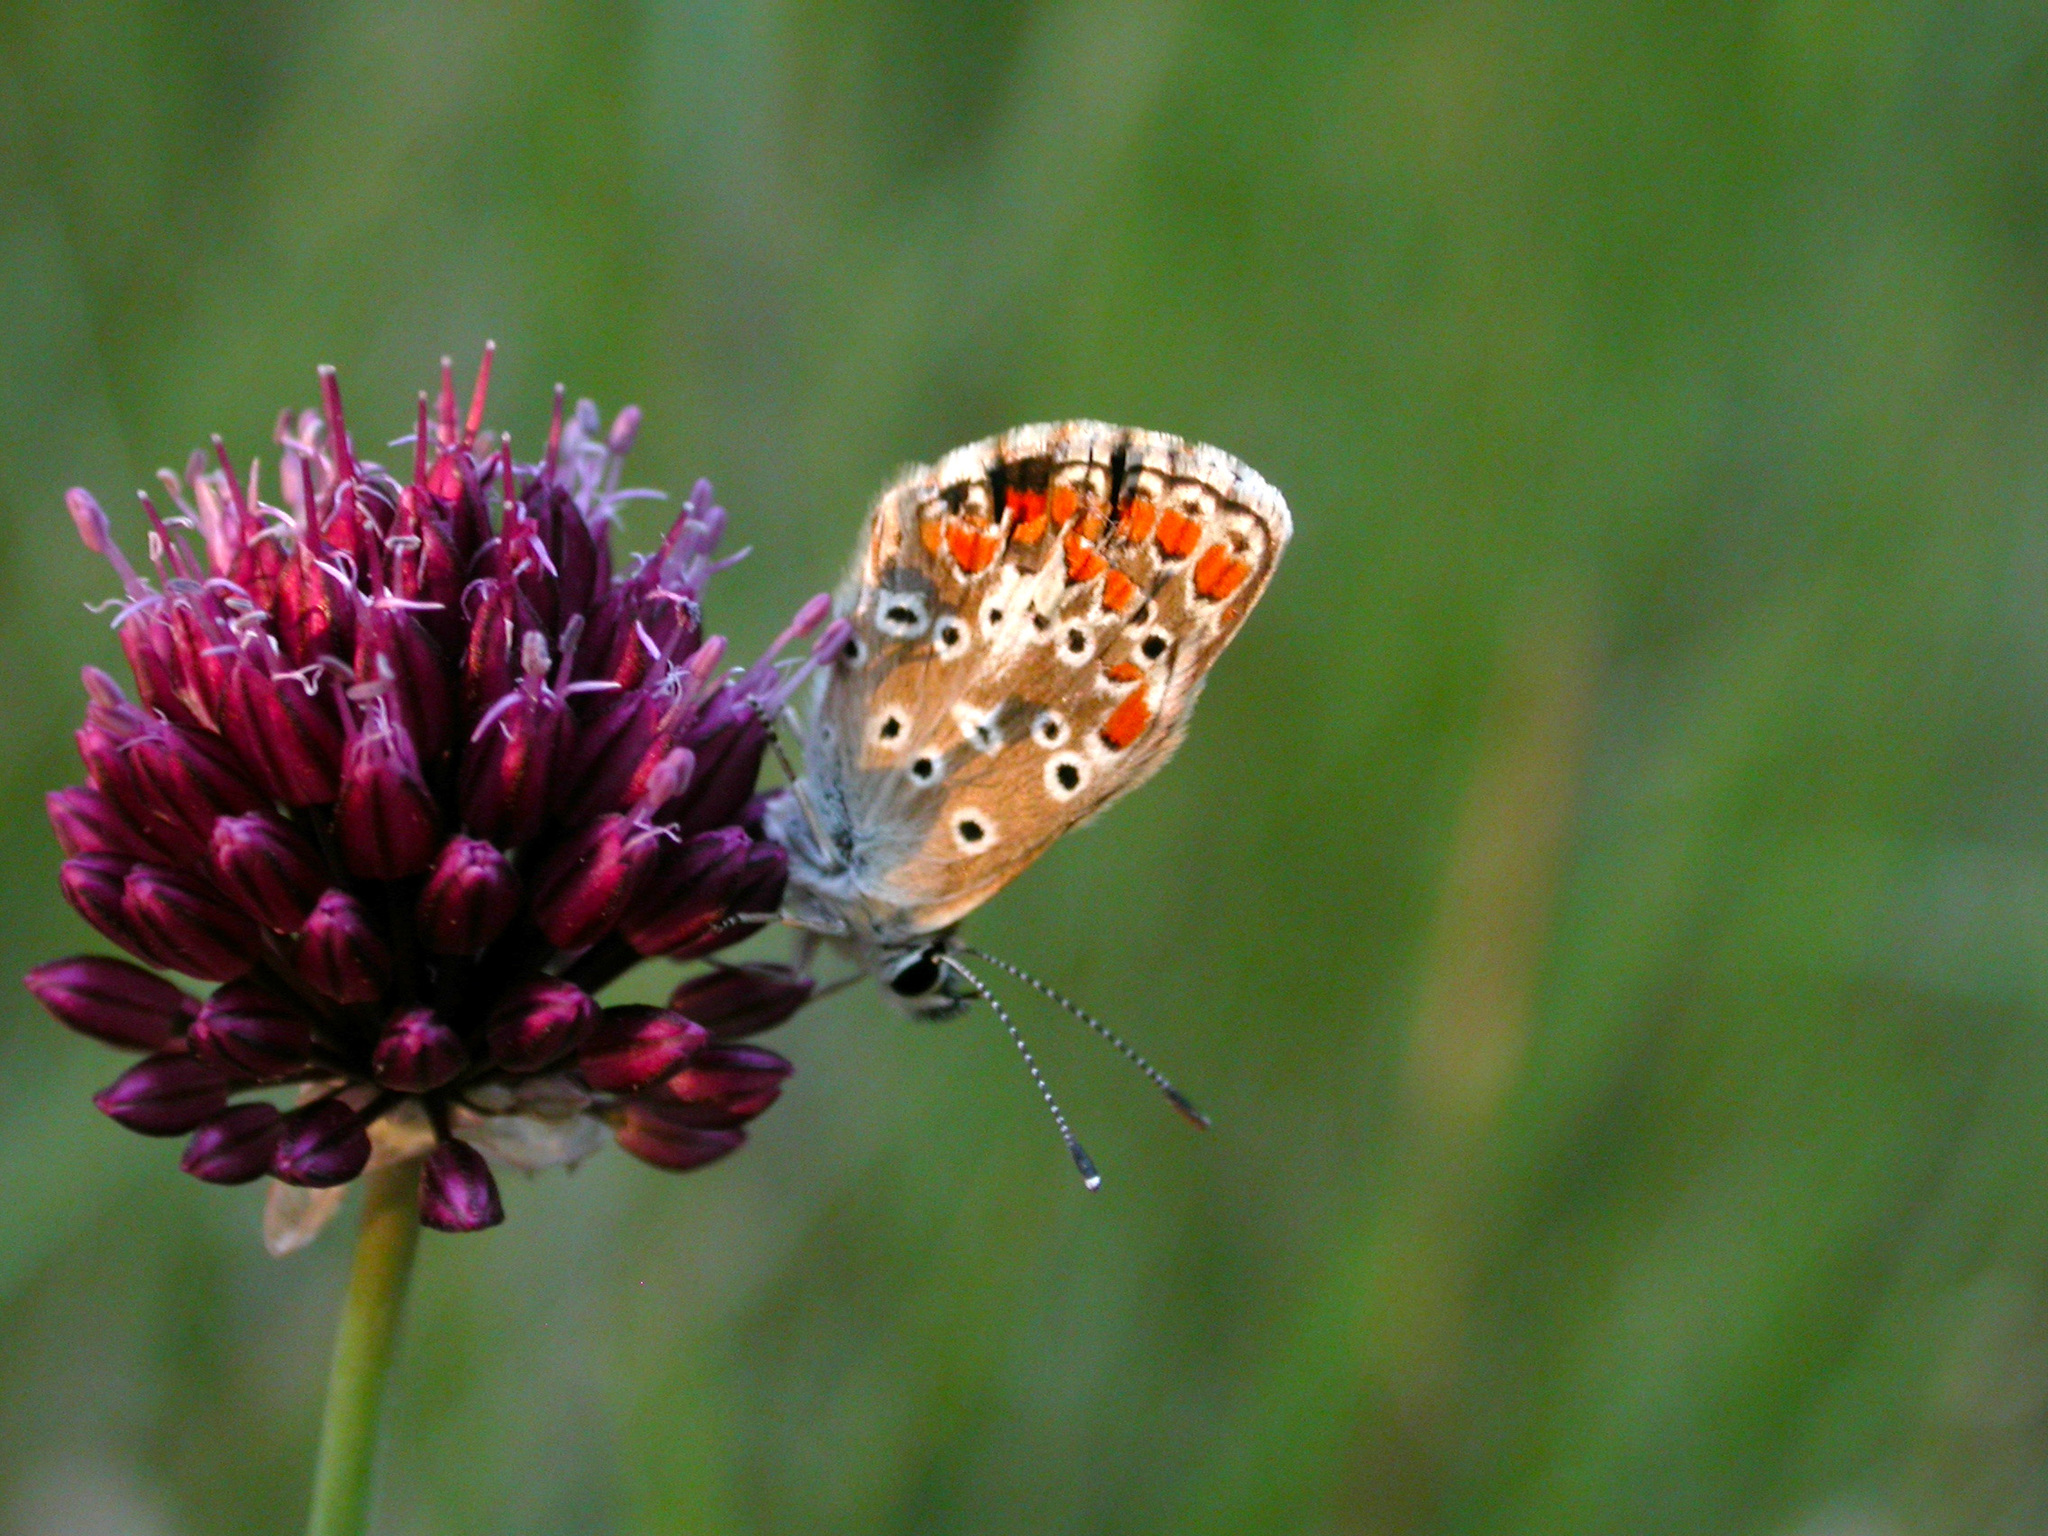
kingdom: Animalia
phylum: Arthropoda
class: Insecta
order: Lepidoptera
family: Lycaenidae
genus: Aricia
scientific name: Aricia agestis
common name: Brown argus
